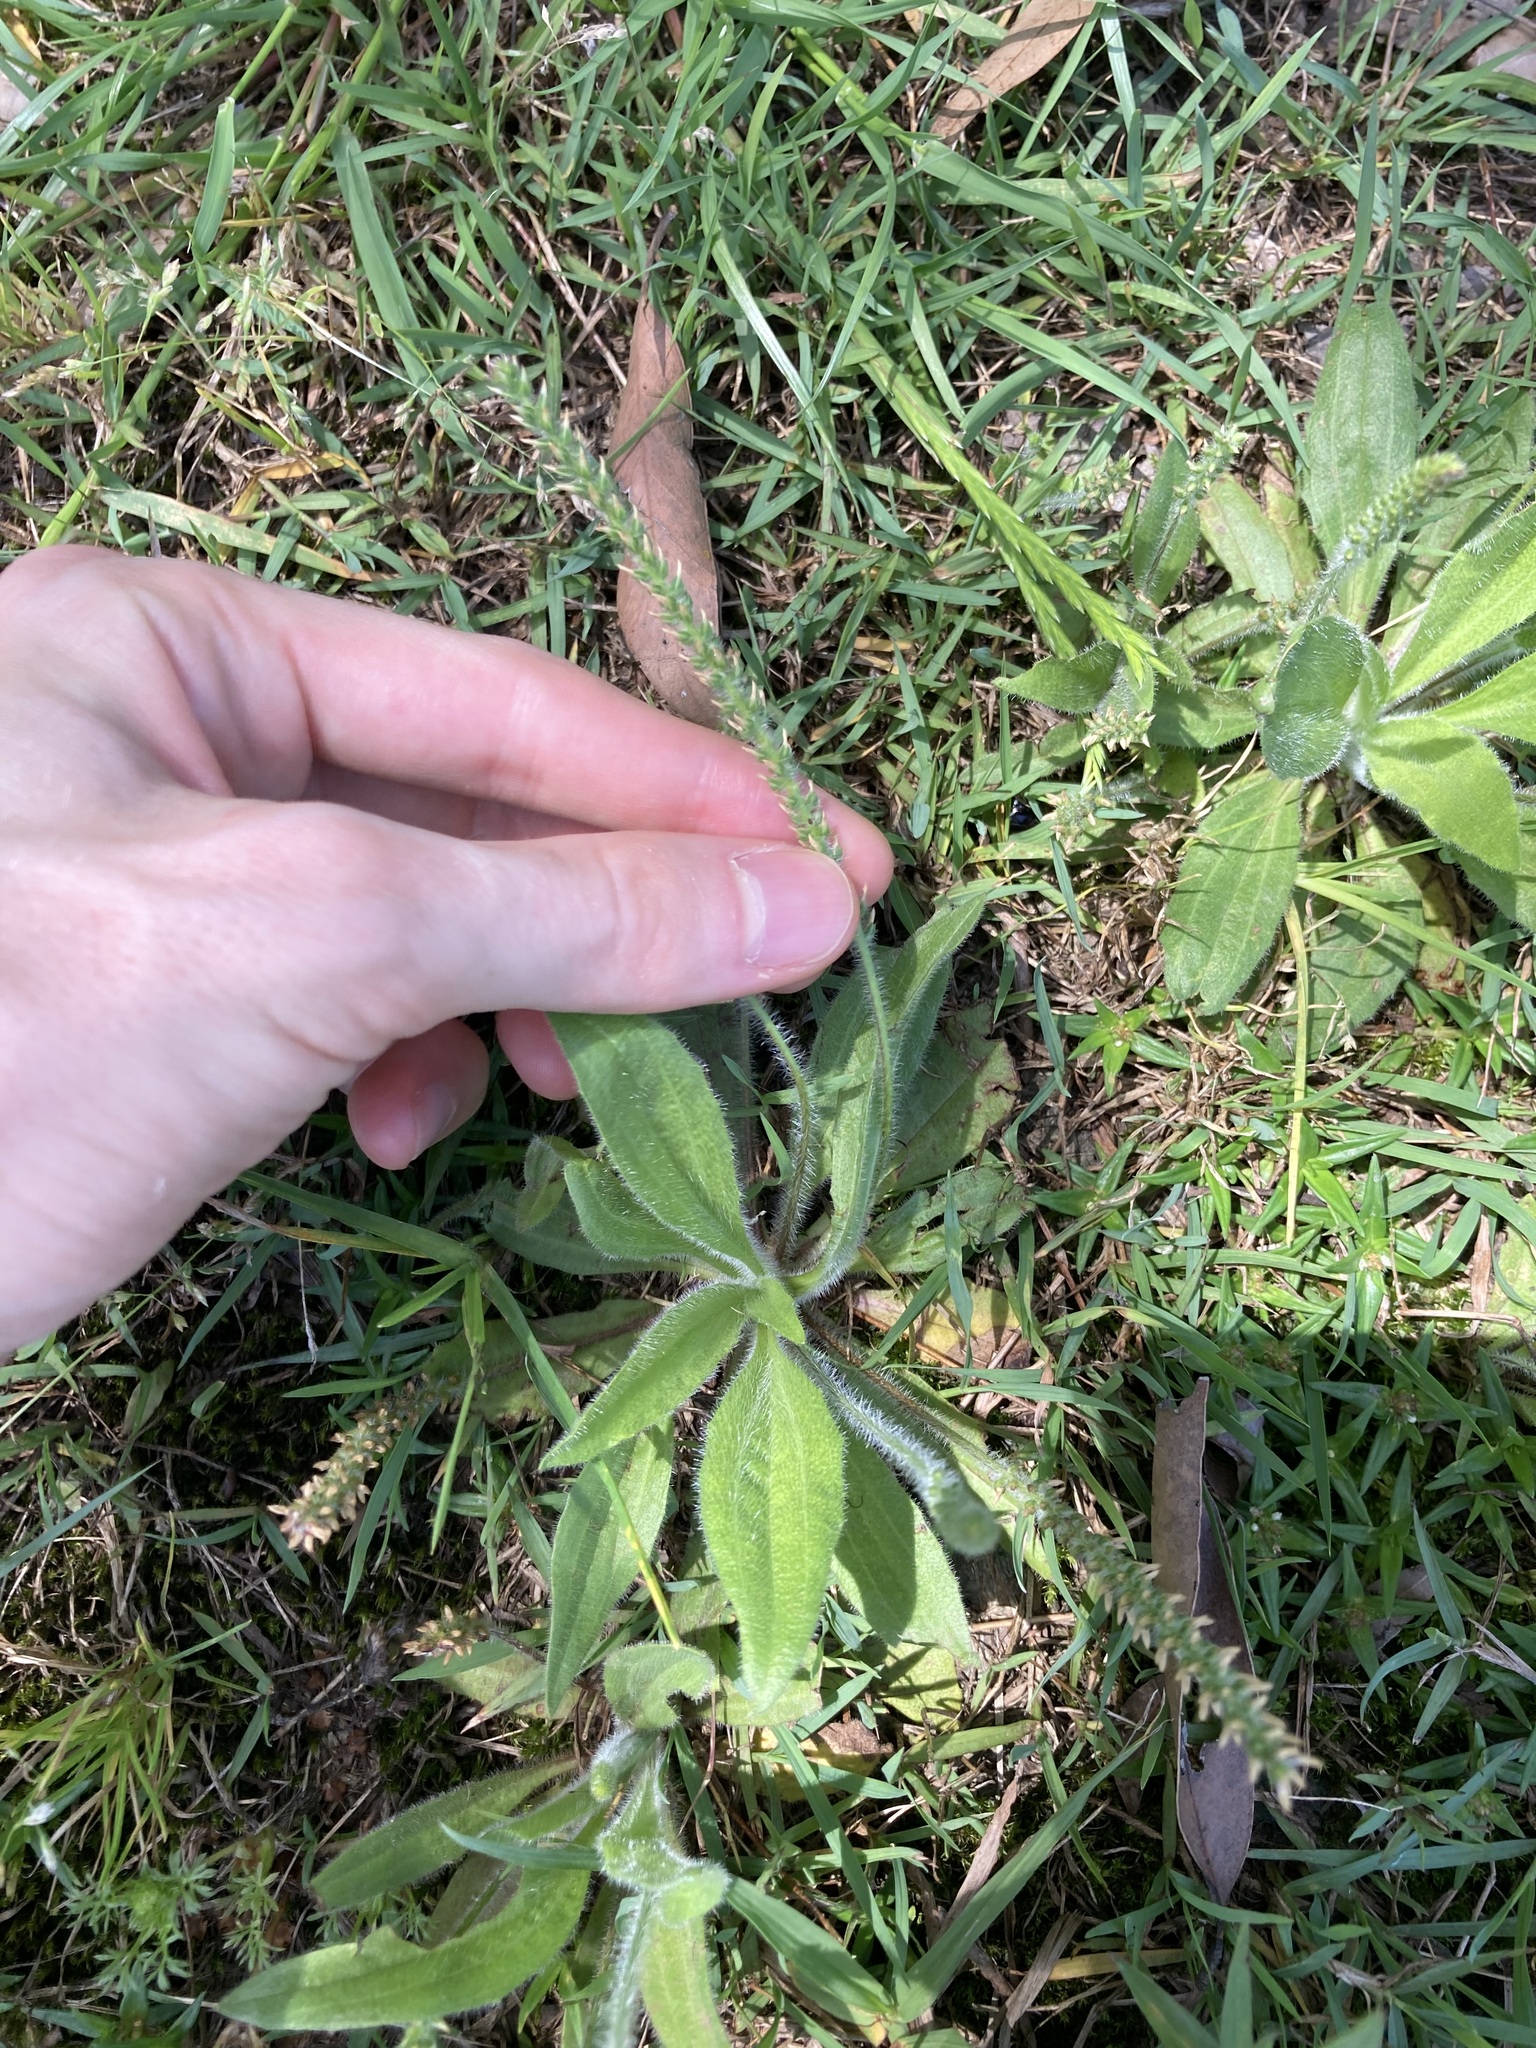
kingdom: Plantae
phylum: Tracheophyta
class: Magnoliopsida
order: Lamiales
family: Plantaginaceae
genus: Plantago
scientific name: Plantago myosuros
